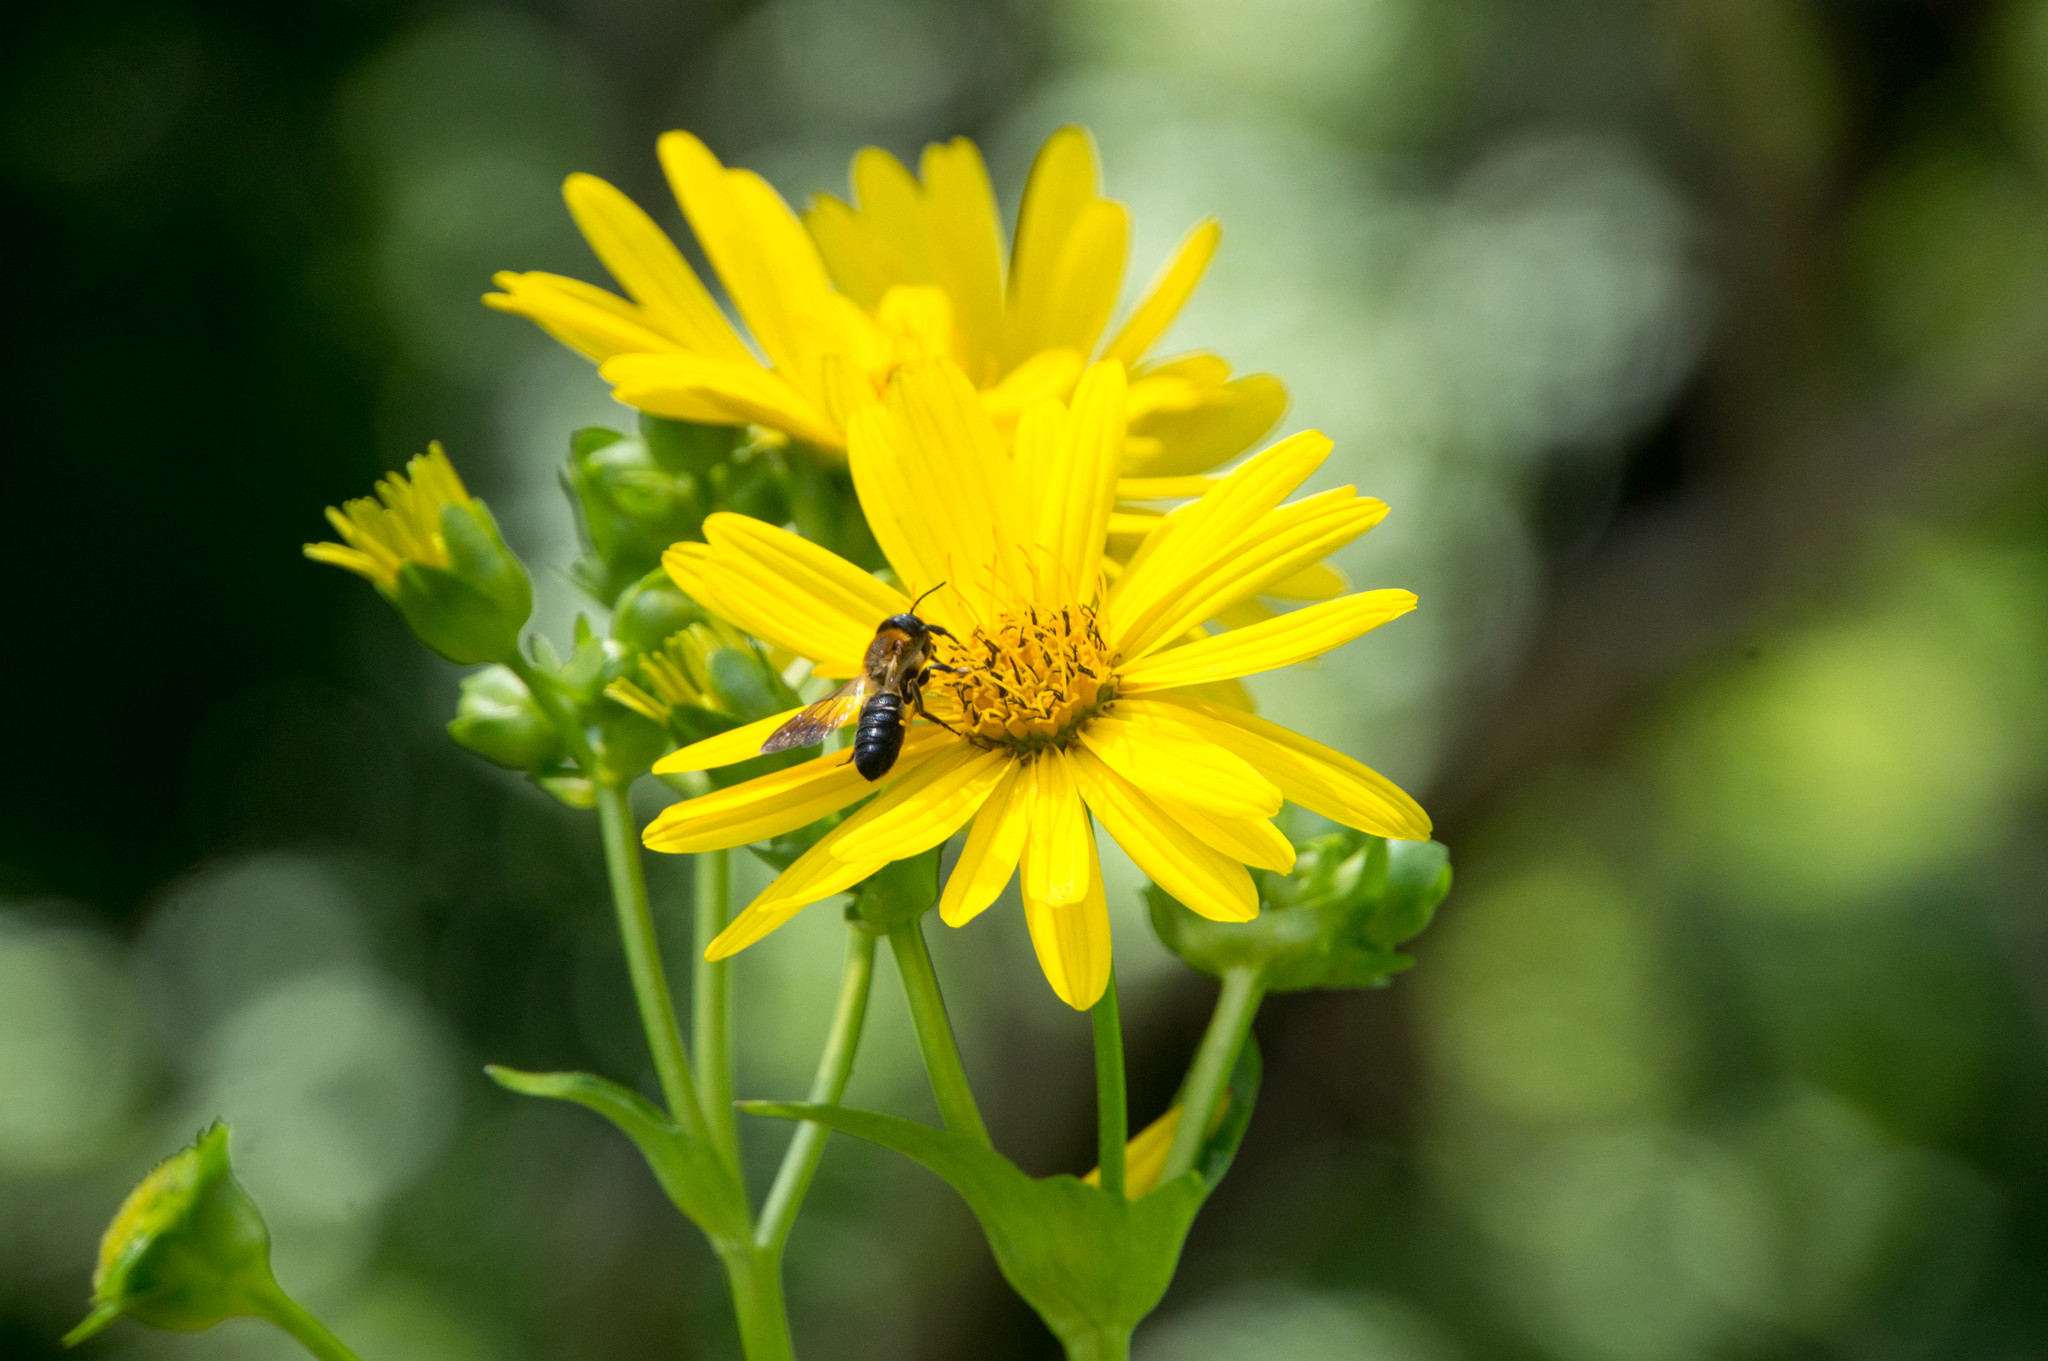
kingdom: Animalia
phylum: Arthropoda
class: Insecta
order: Hymenoptera
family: Megachilidae
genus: Megachile
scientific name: Megachile sculpturalis
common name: Sculptured resin bee
